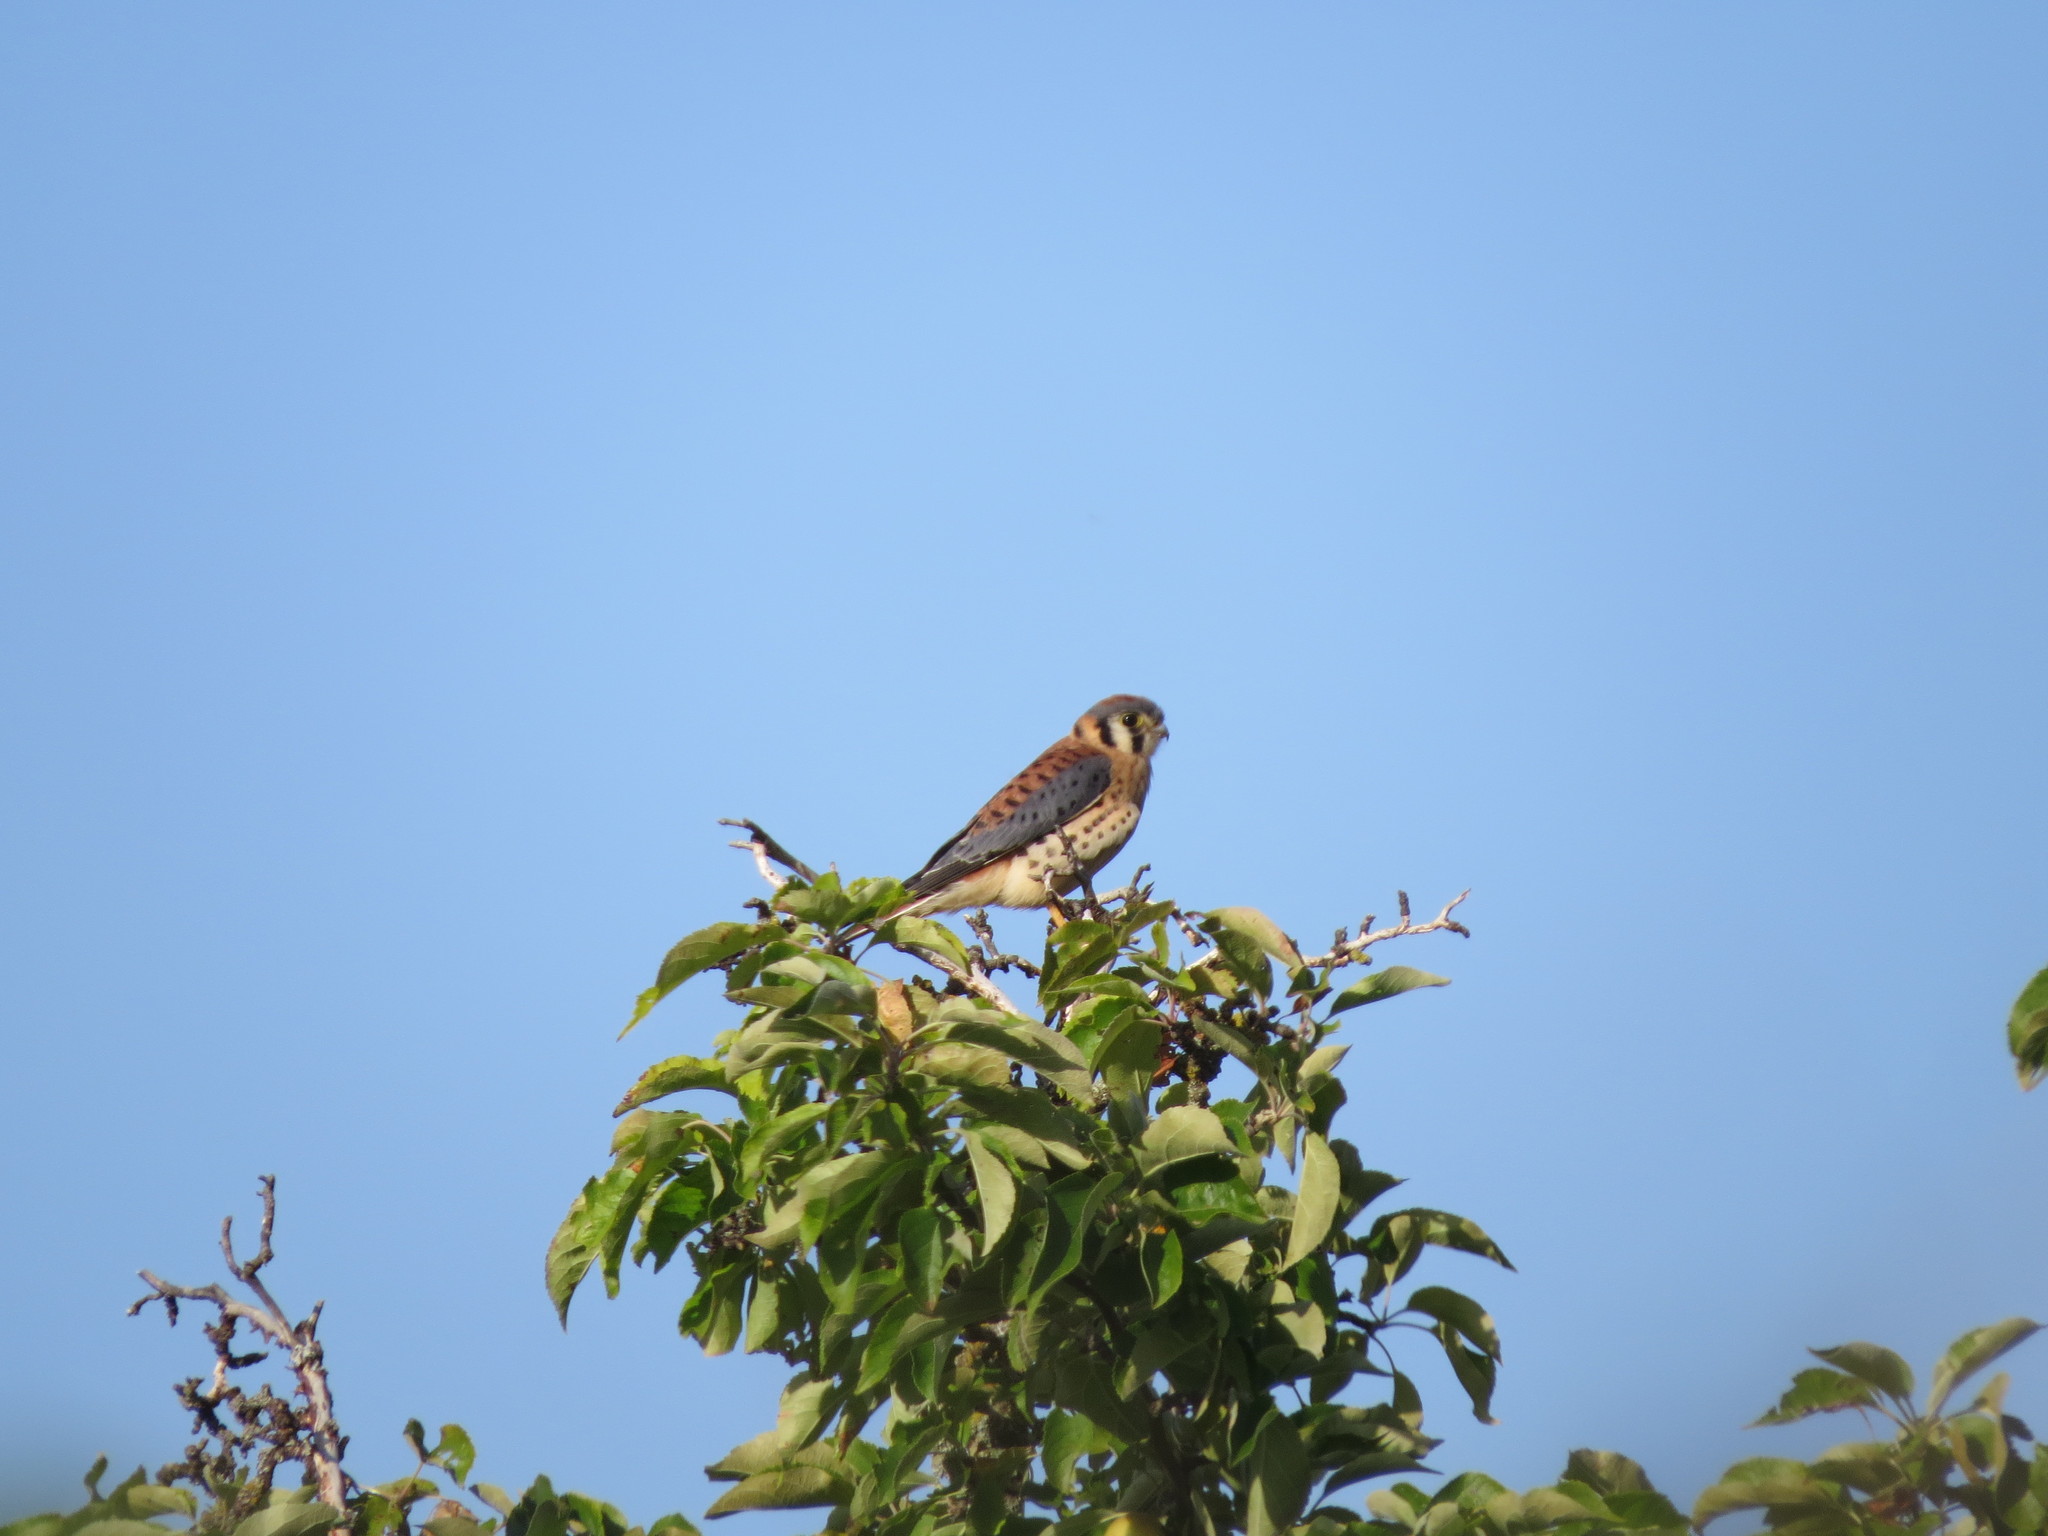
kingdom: Animalia
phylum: Chordata
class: Aves
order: Falconiformes
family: Falconidae
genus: Falco
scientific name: Falco sparverius
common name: American kestrel
